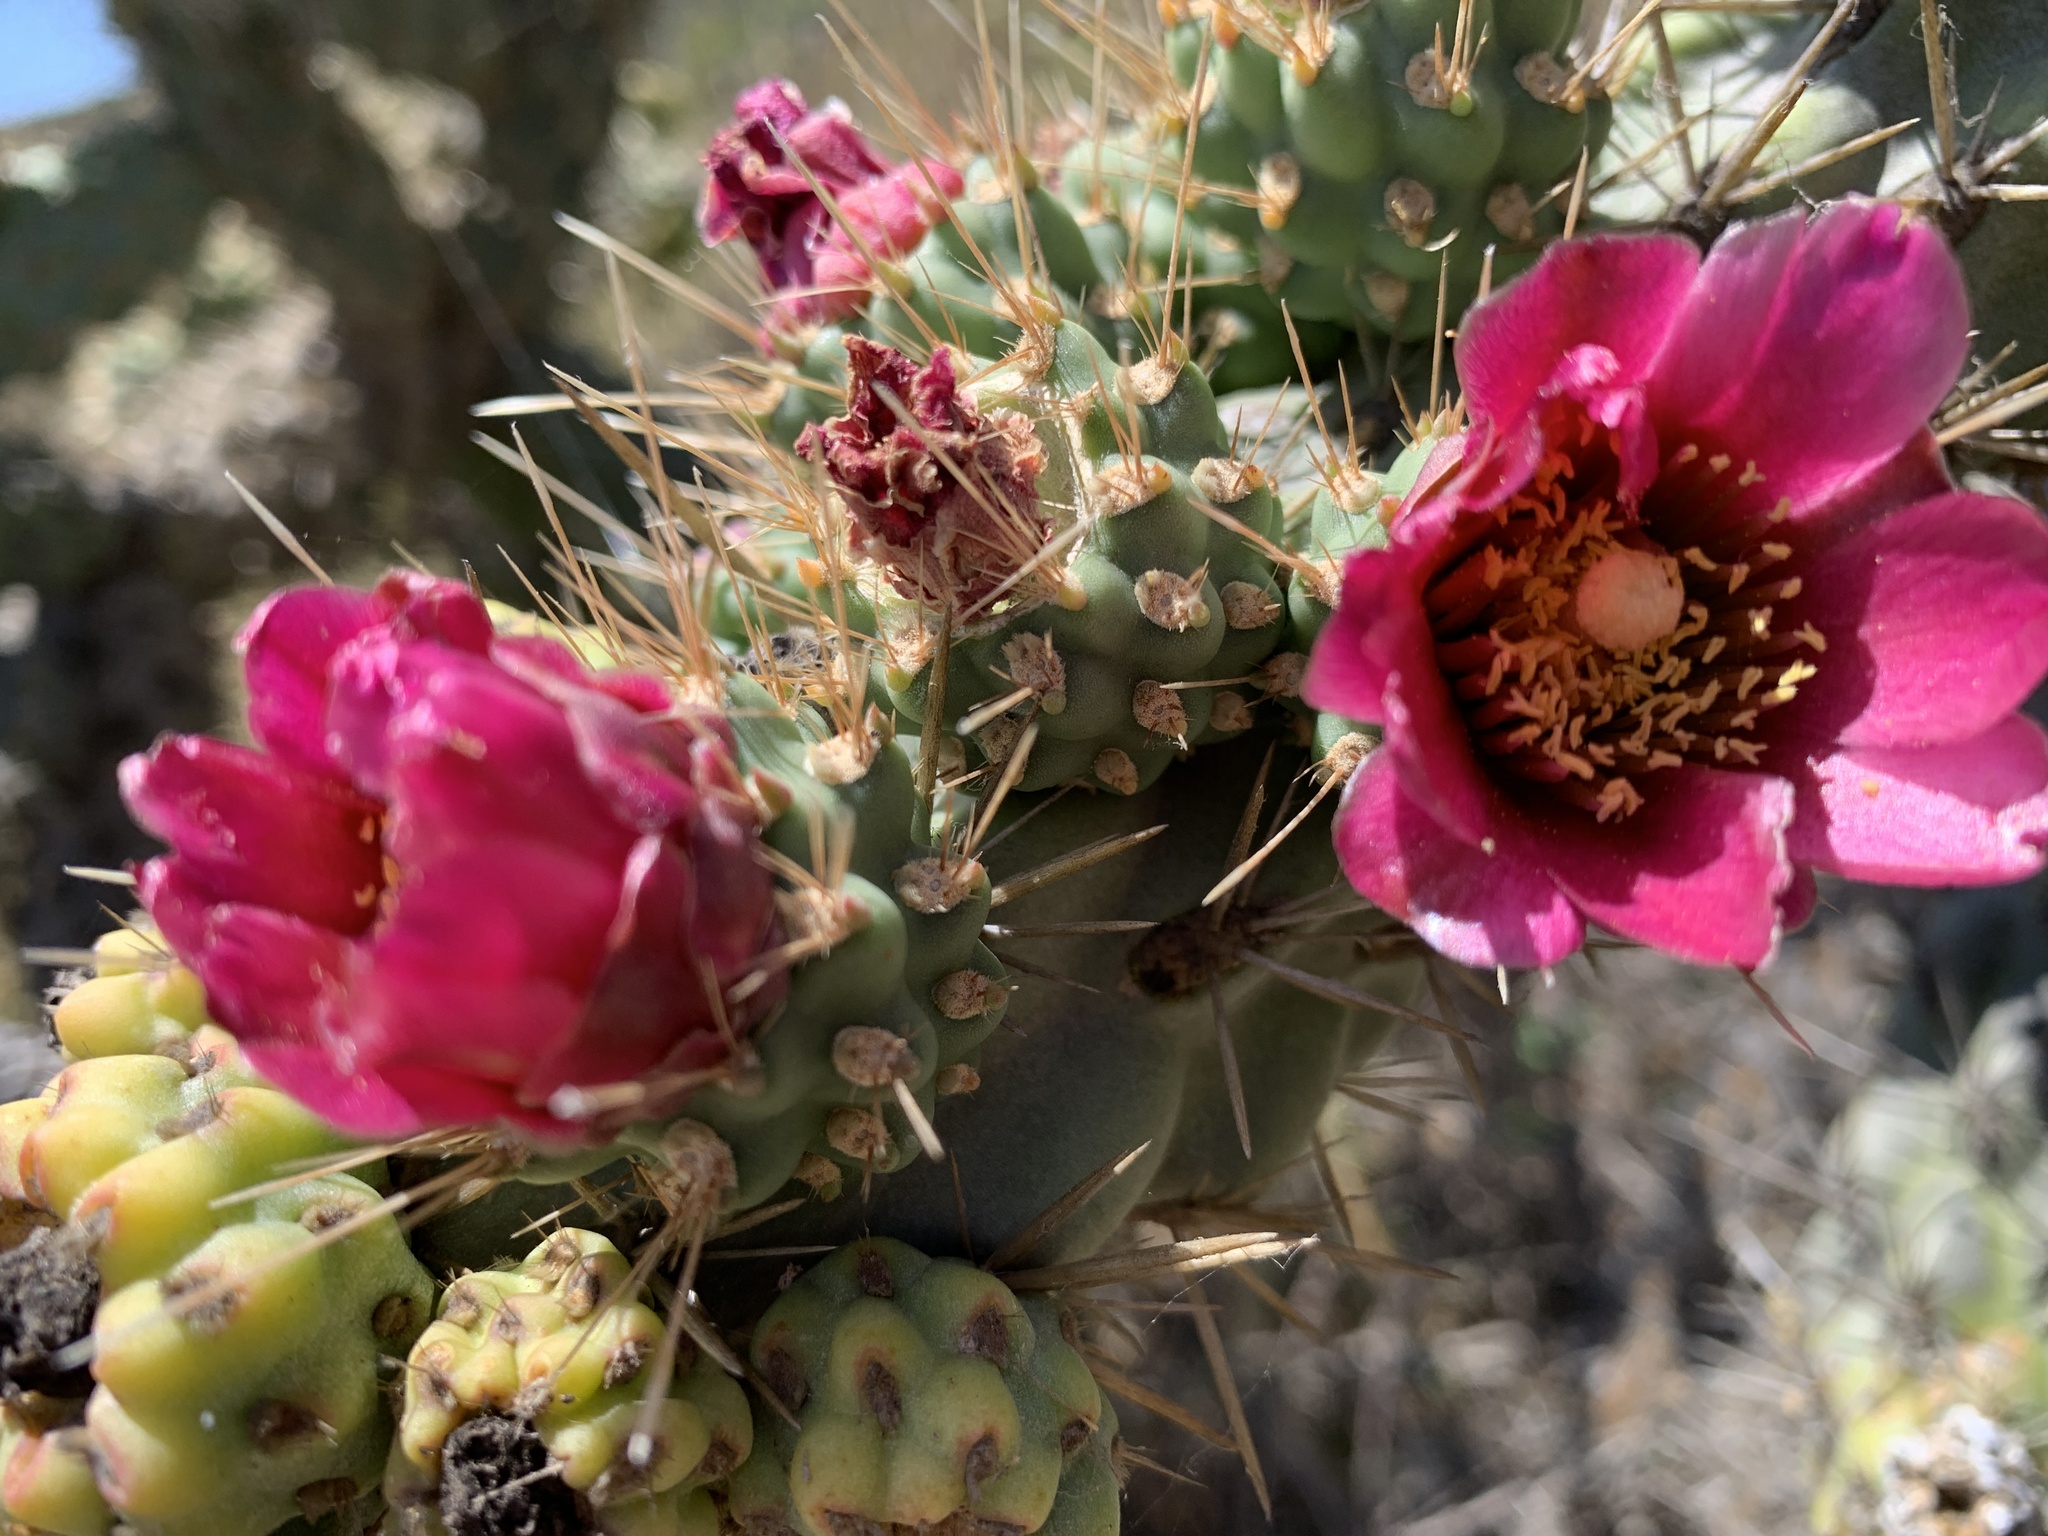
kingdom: Plantae
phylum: Tracheophyta
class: Magnoliopsida
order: Caryophyllales
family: Cactaceae
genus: Cylindropuntia
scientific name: Cylindropuntia prolifera
